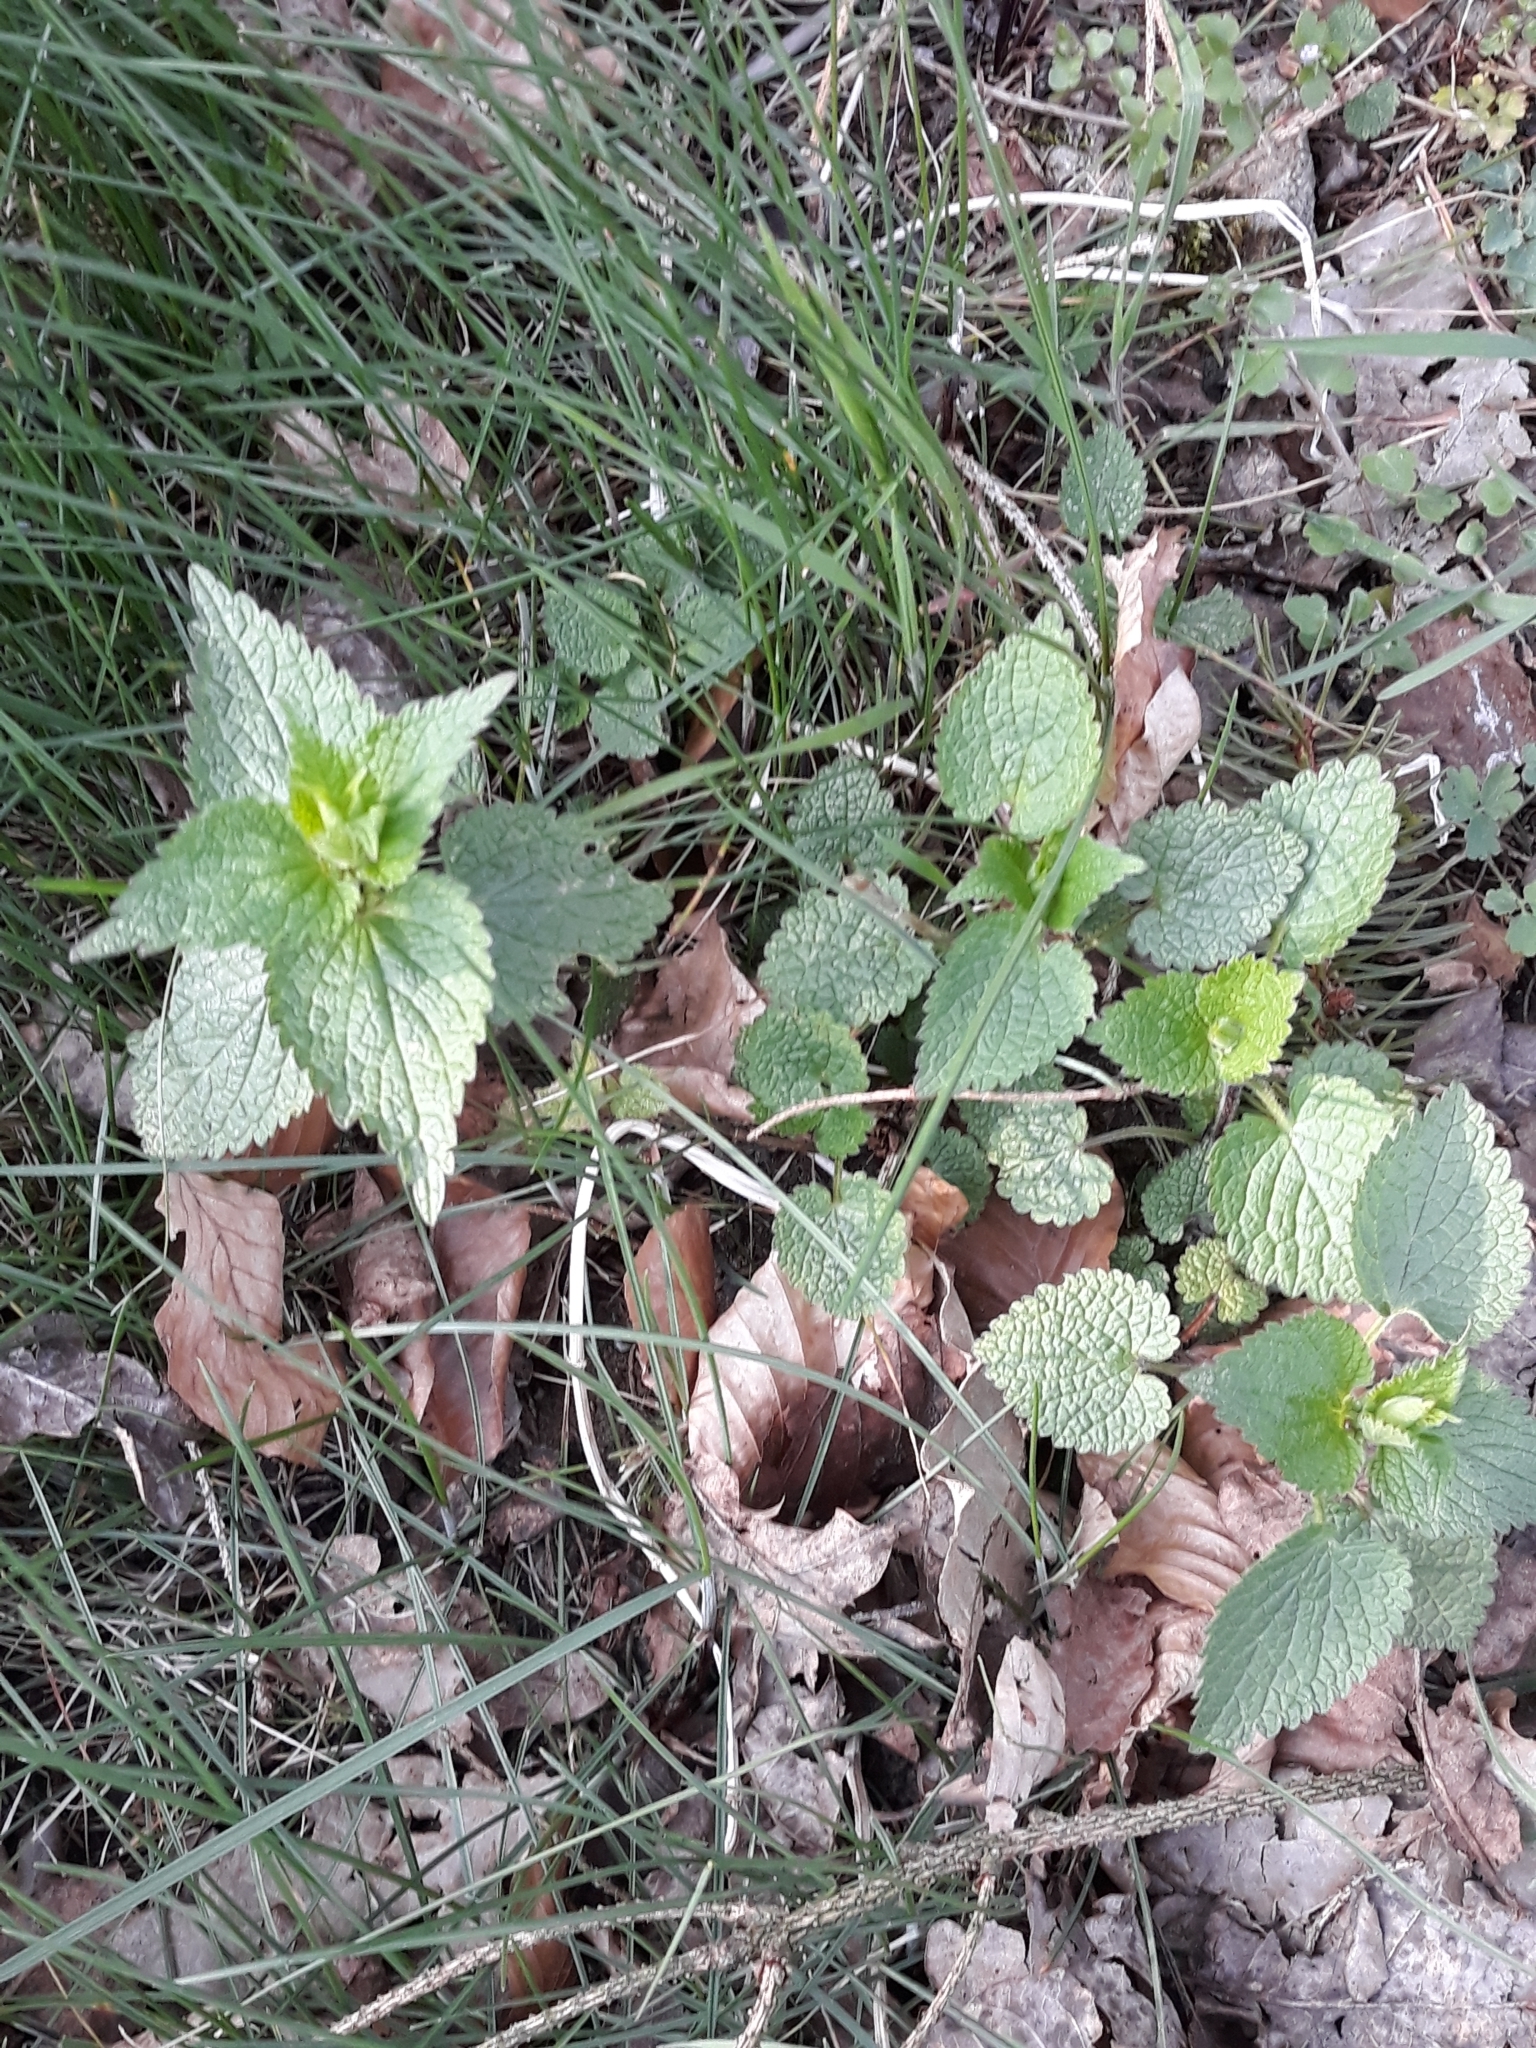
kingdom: Plantae
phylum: Tracheophyta
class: Magnoliopsida
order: Lamiales
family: Lamiaceae
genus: Lamium
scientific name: Lamium album
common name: White dead-nettle
